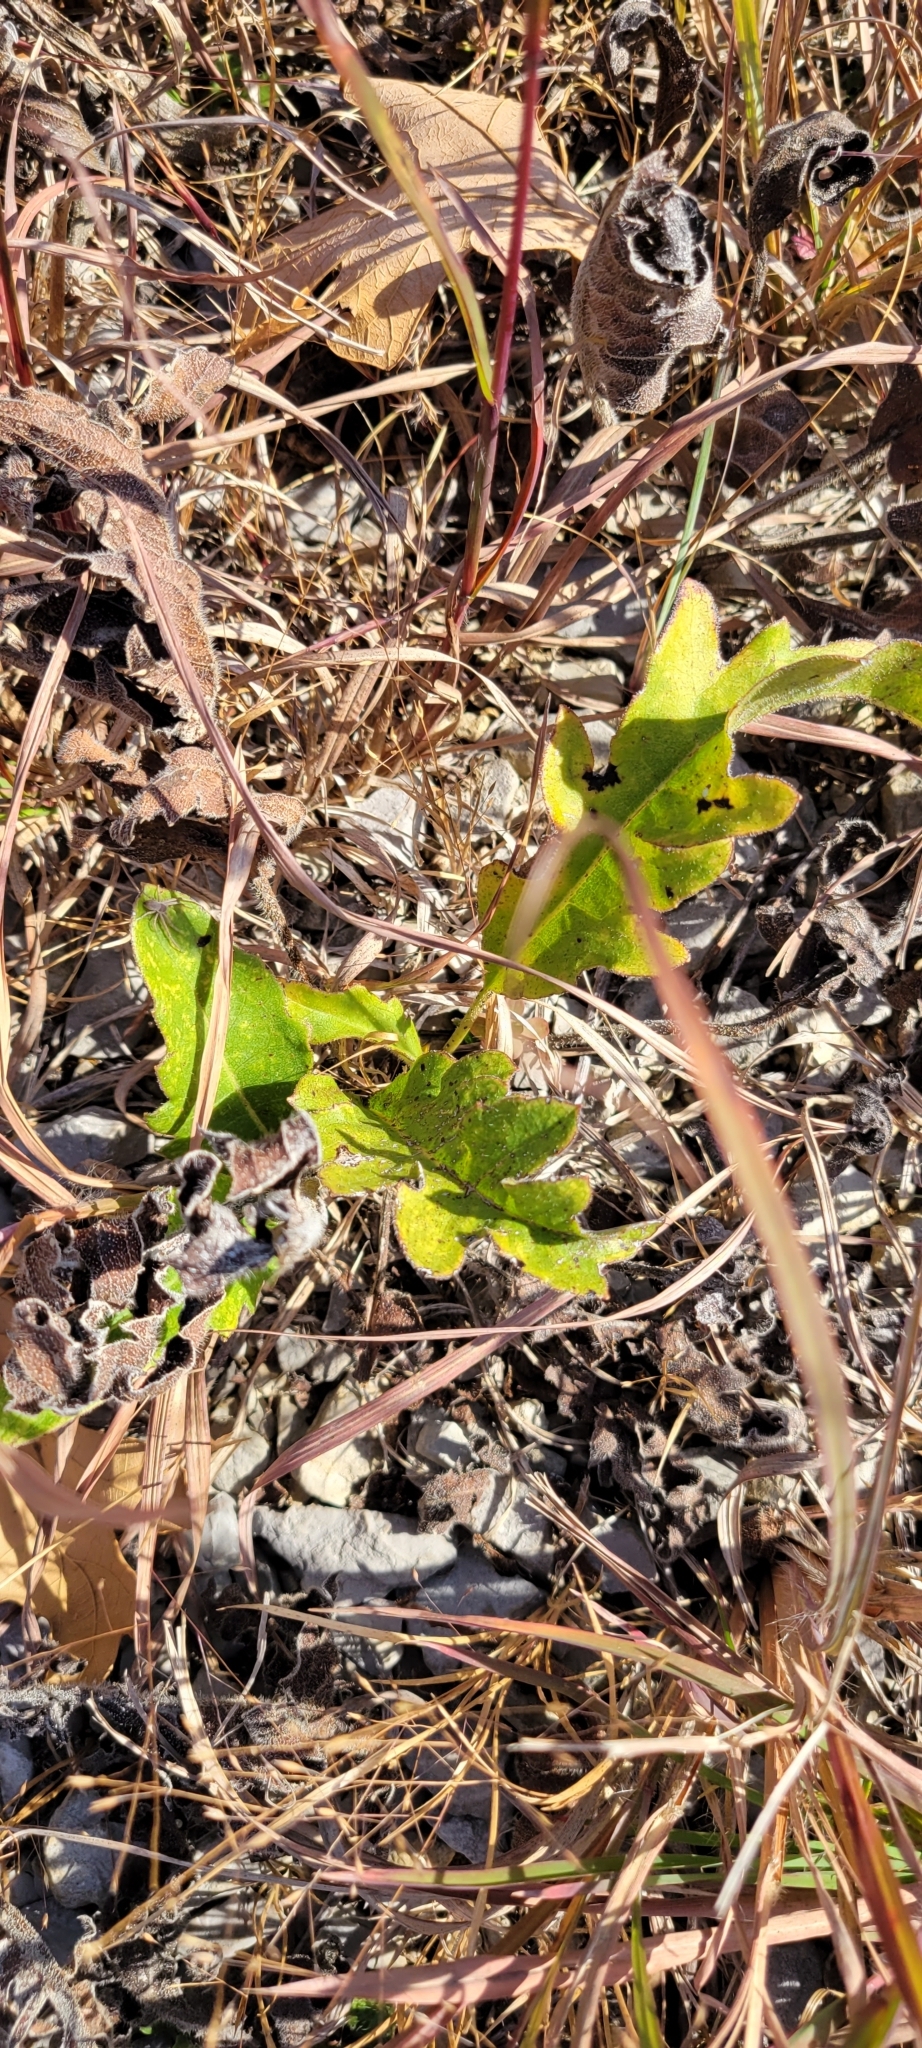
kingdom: Plantae
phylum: Tracheophyta
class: Magnoliopsida
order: Asterales
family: Asteraceae
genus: Silphium
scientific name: Silphium pinnatifidum
